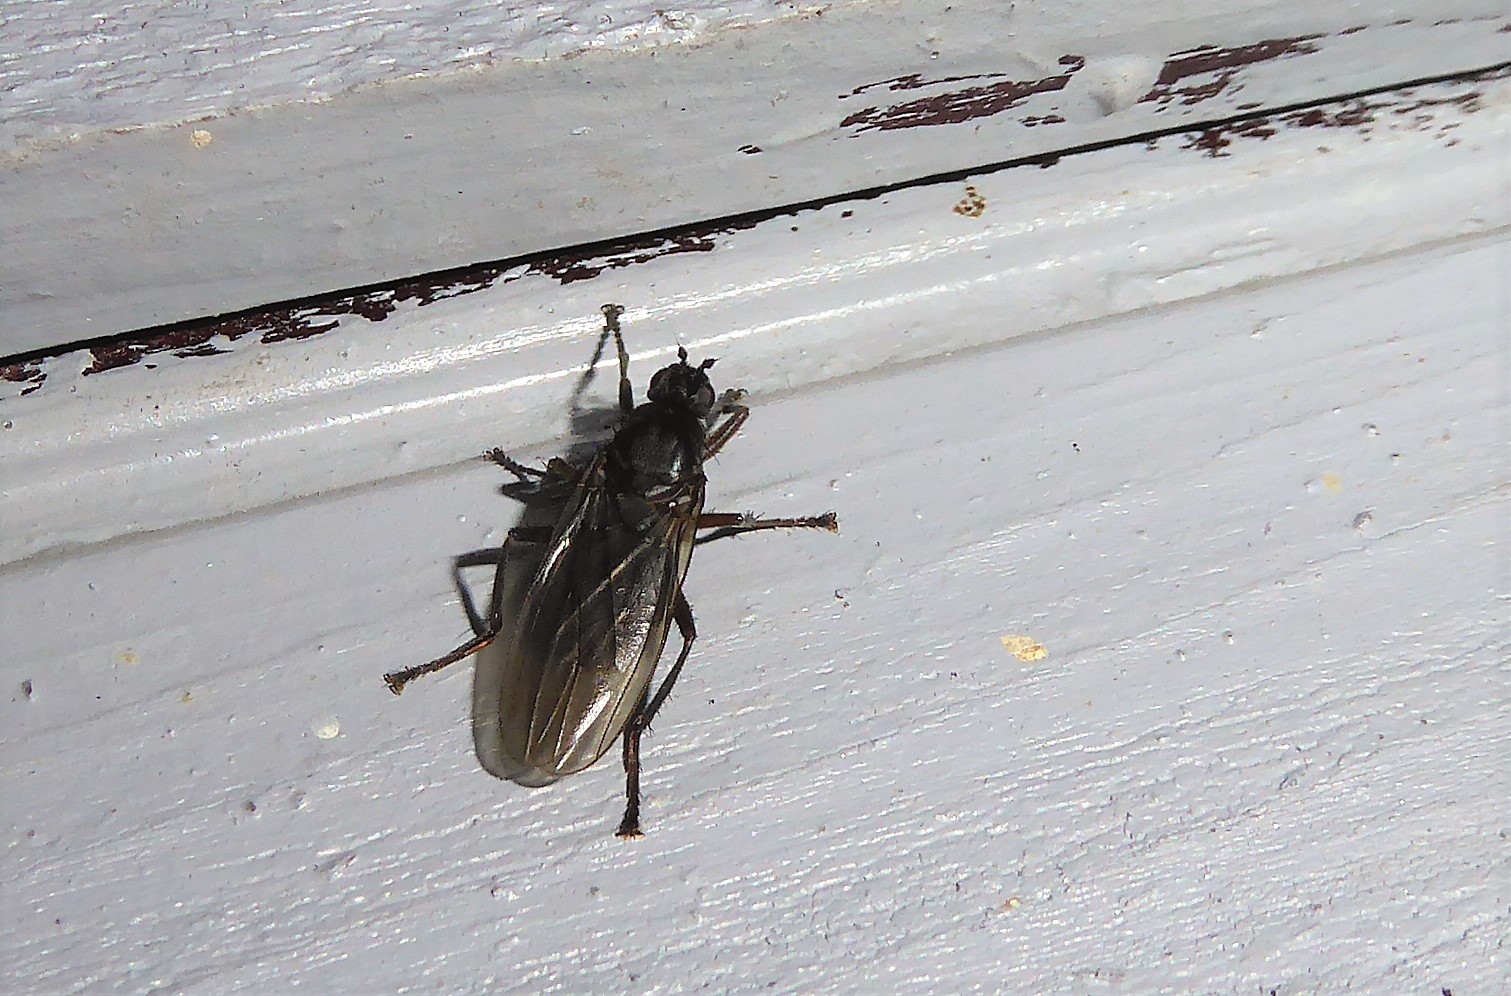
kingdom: Animalia
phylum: Arthropoda
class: Insecta
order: Diptera
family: Coelopidae
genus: Baeopterus
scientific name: Baeopterus philpotti
